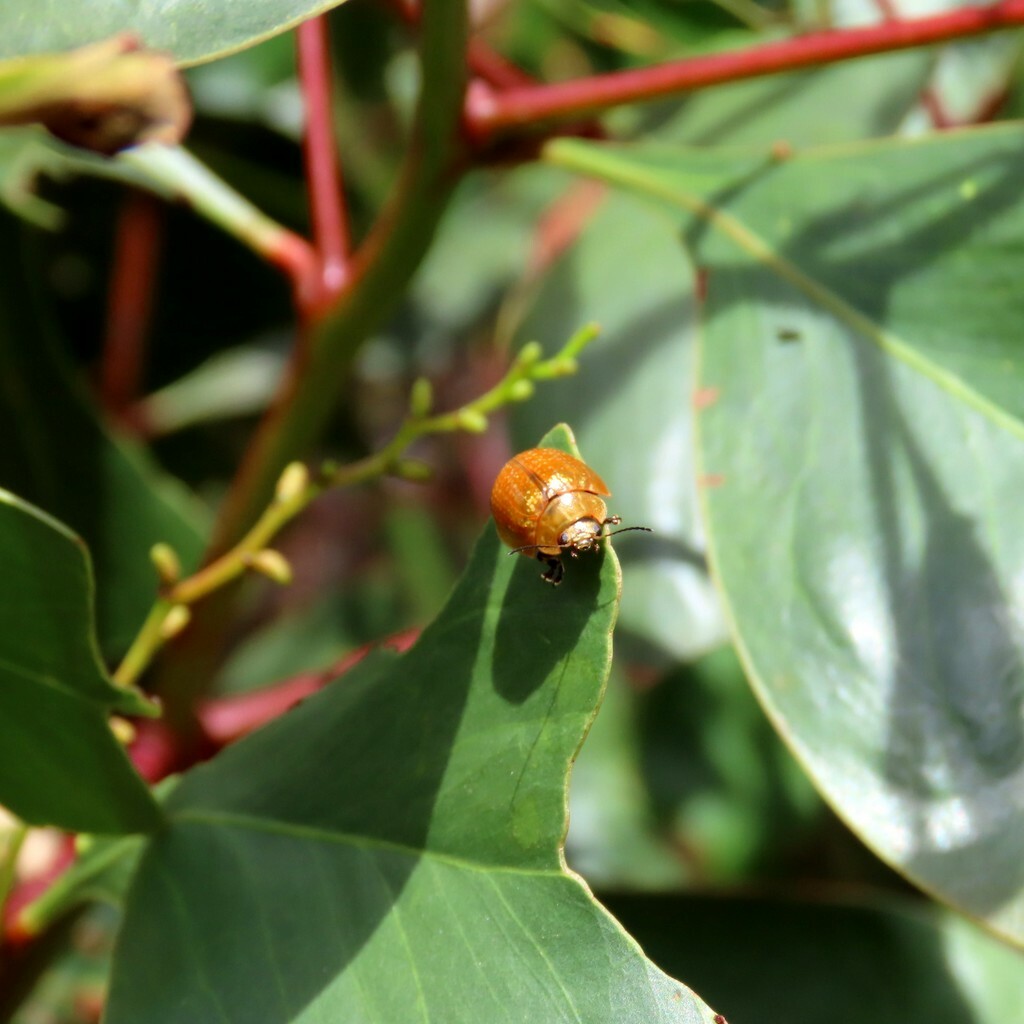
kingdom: Animalia
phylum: Arthropoda
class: Insecta
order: Coleoptera
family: Chrysomelidae
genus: Paropsisterna
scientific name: Paropsisterna cloelia
